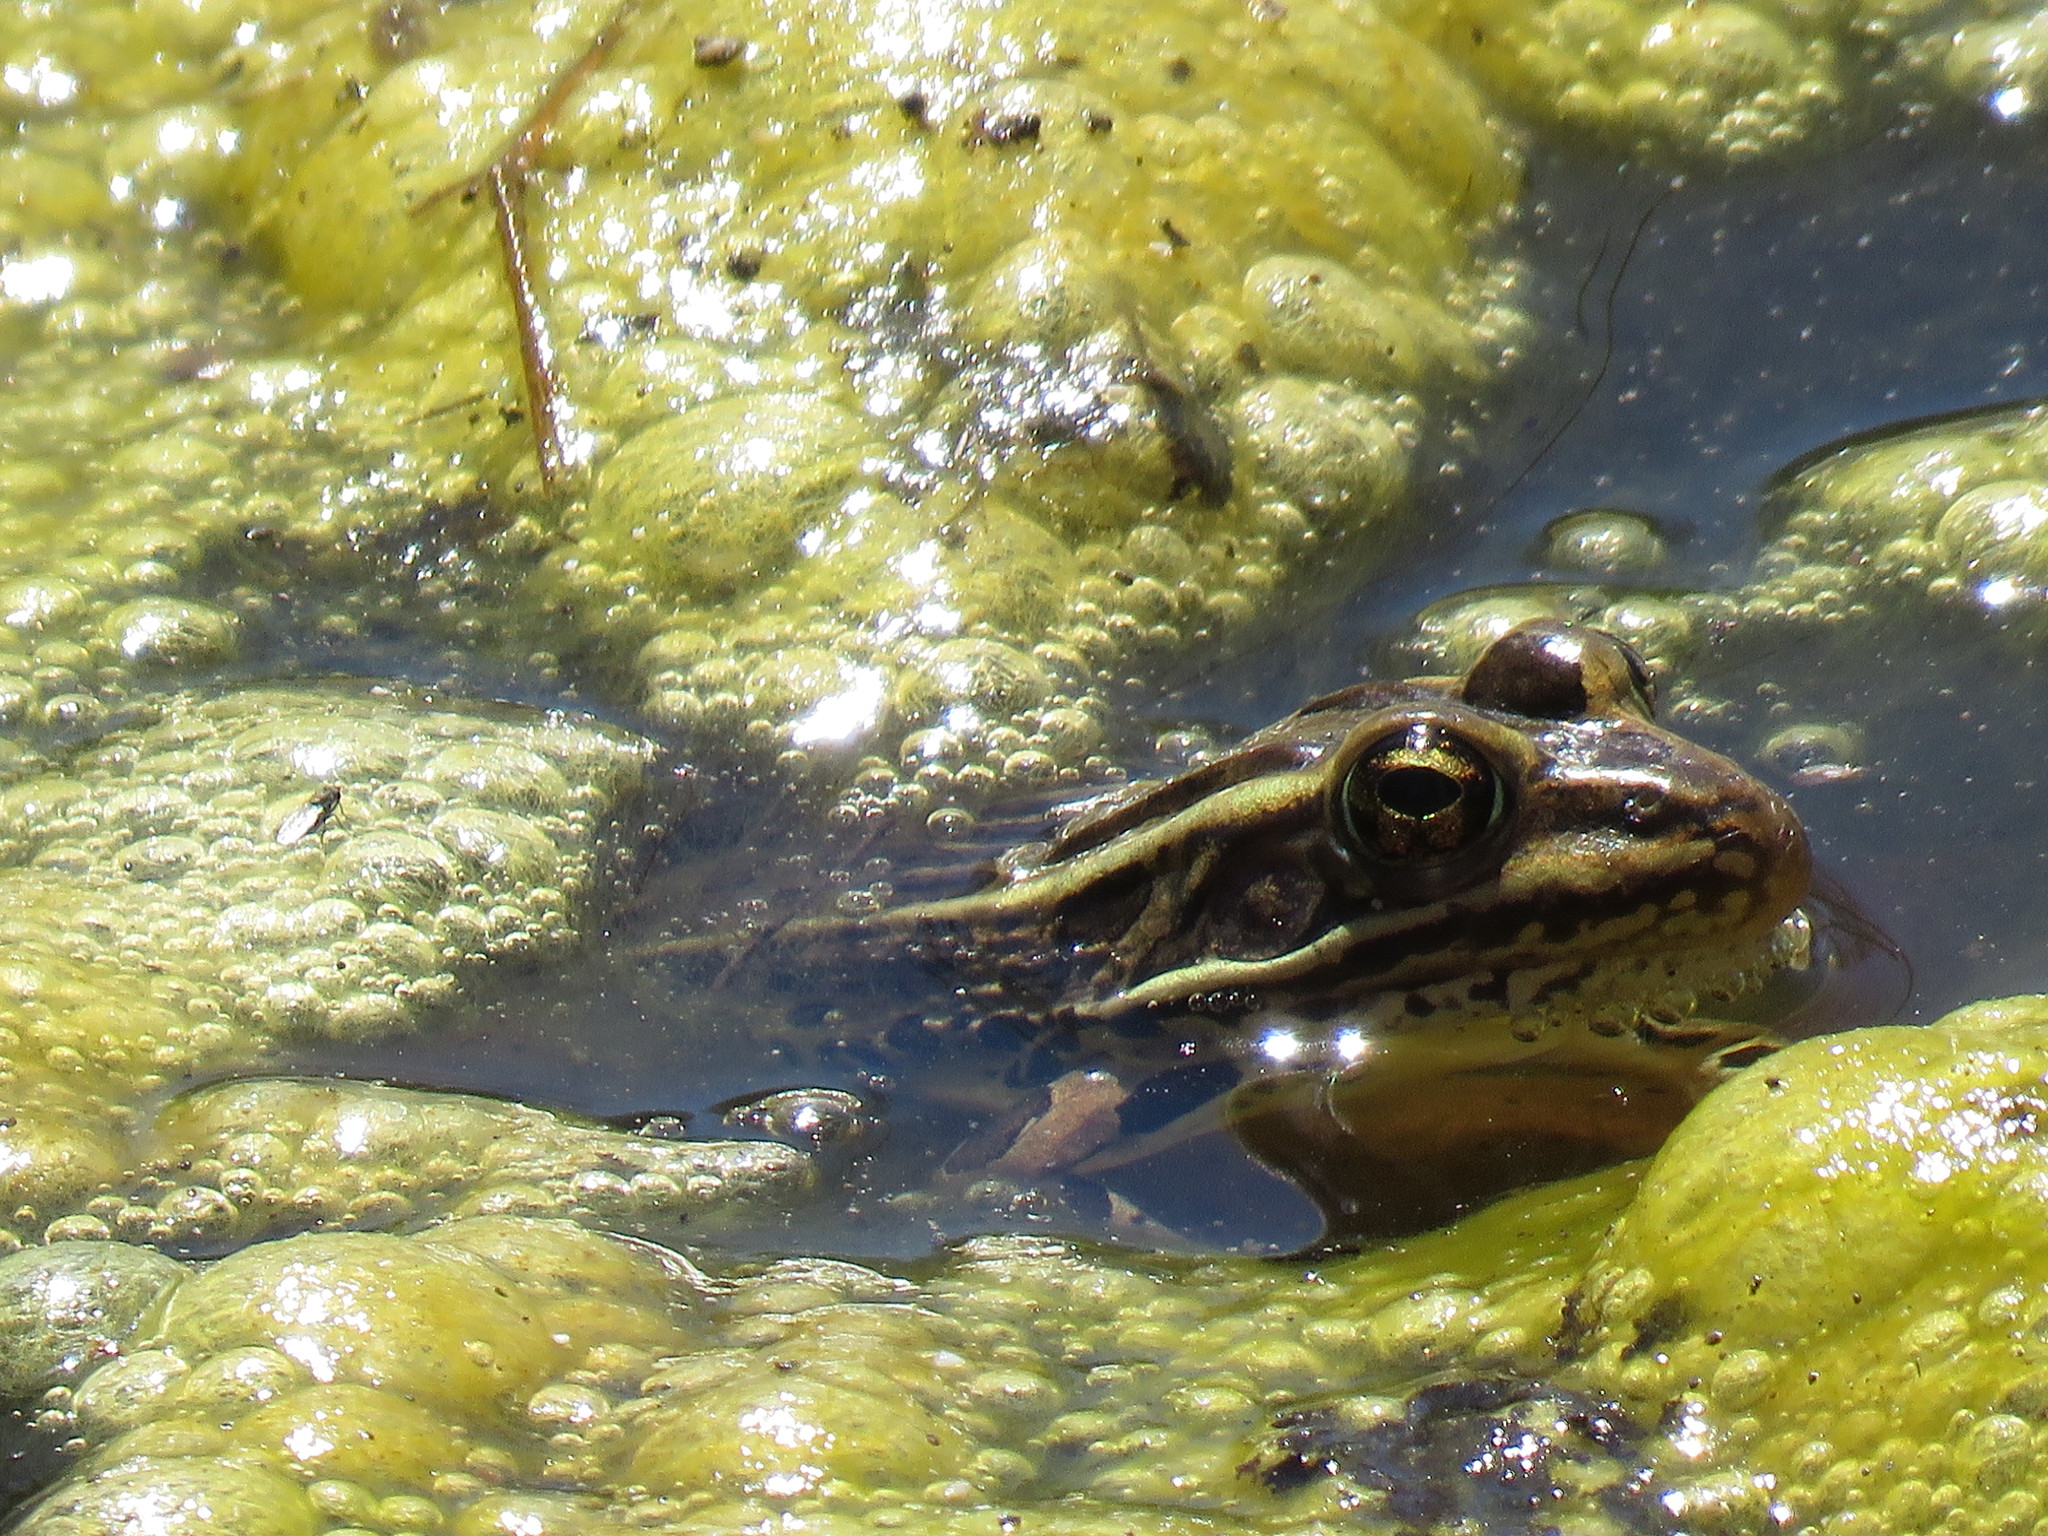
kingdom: Animalia
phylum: Chordata
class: Amphibia
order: Anura
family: Ranidae
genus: Lithobates
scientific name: Lithobates pipiens
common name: Northern leopard frog
